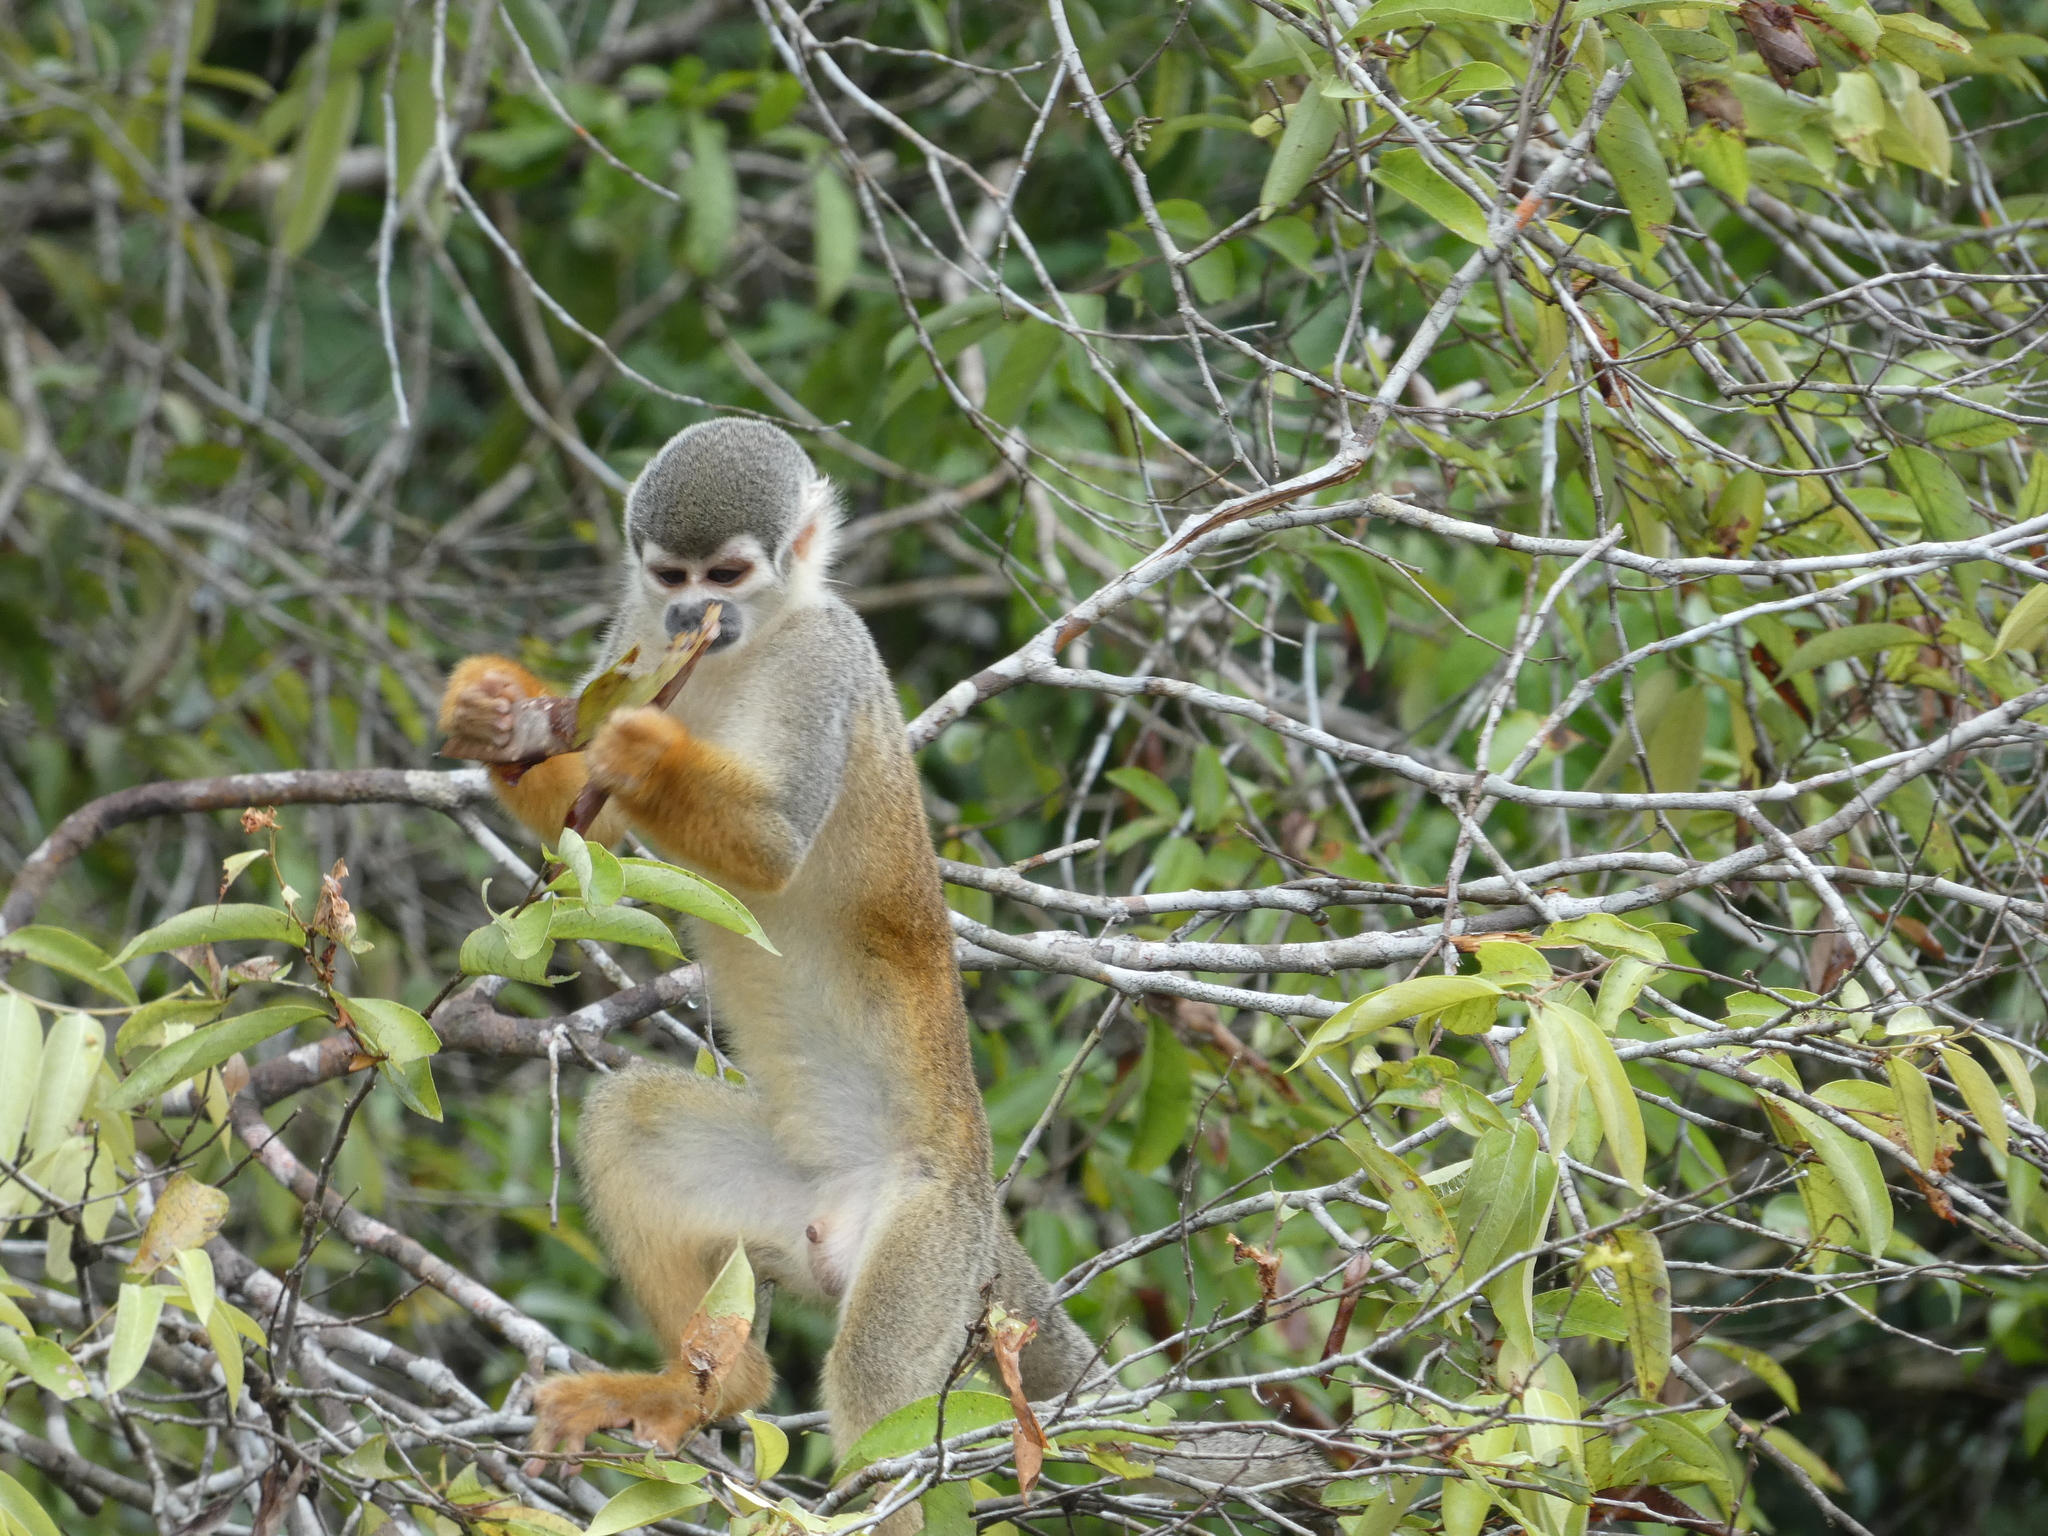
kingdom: Animalia
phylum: Chordata
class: Mammalia
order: Primates
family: Cebidae
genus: Saimiri
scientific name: Saimiri cassiquiarensis
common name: Humboldt’s squirrel monkey
